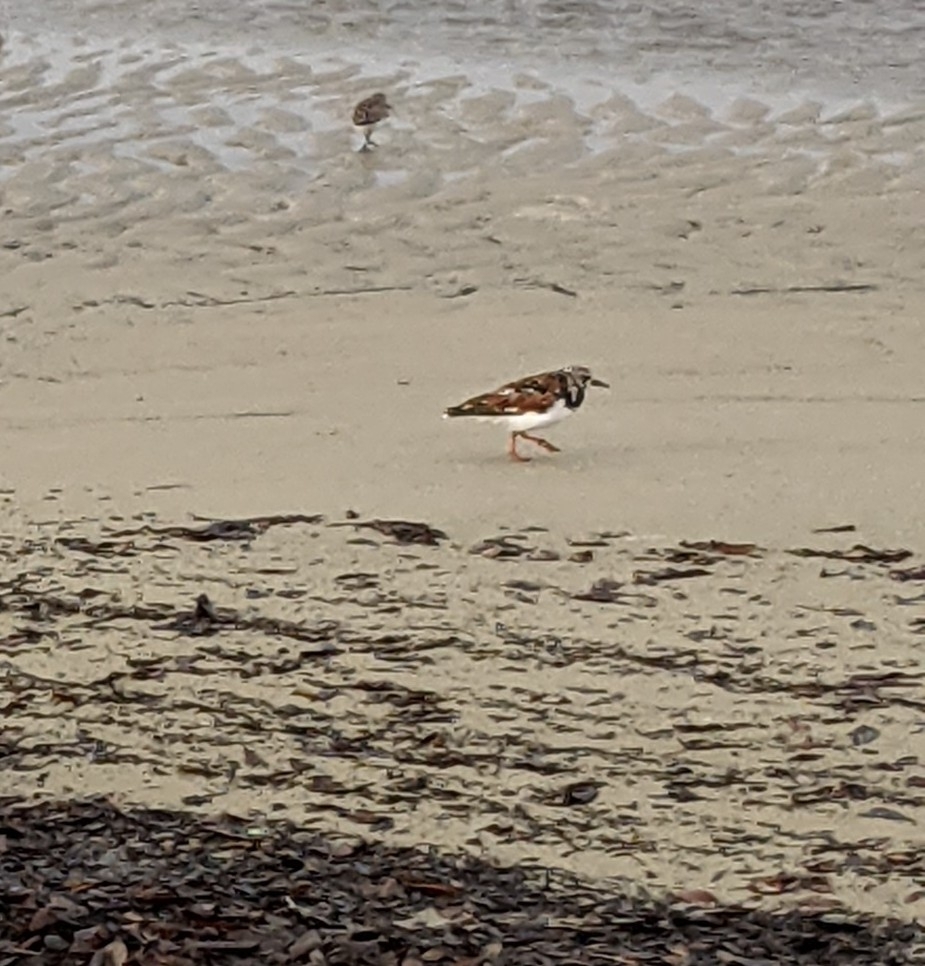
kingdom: Animalia
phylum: Chordata
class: Aves
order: Charadriiformes
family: Scolopacidae
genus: Arenaria
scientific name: Arenaria interpres
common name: Ruddy turnstone
